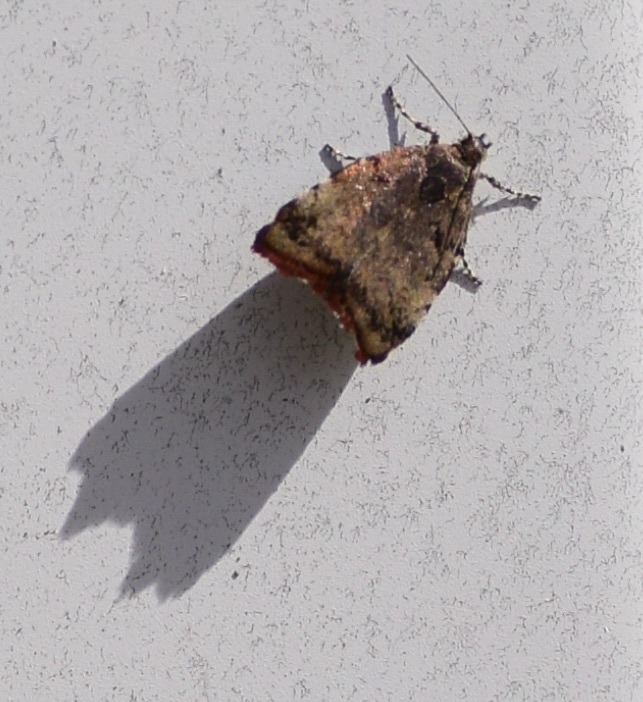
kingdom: Animalia
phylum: Arthropoda
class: Insecta
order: Lepidoptera
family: Choreutidae
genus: Choreutis
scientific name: Choreutis pariana
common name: Apple leaf skeletoniser
